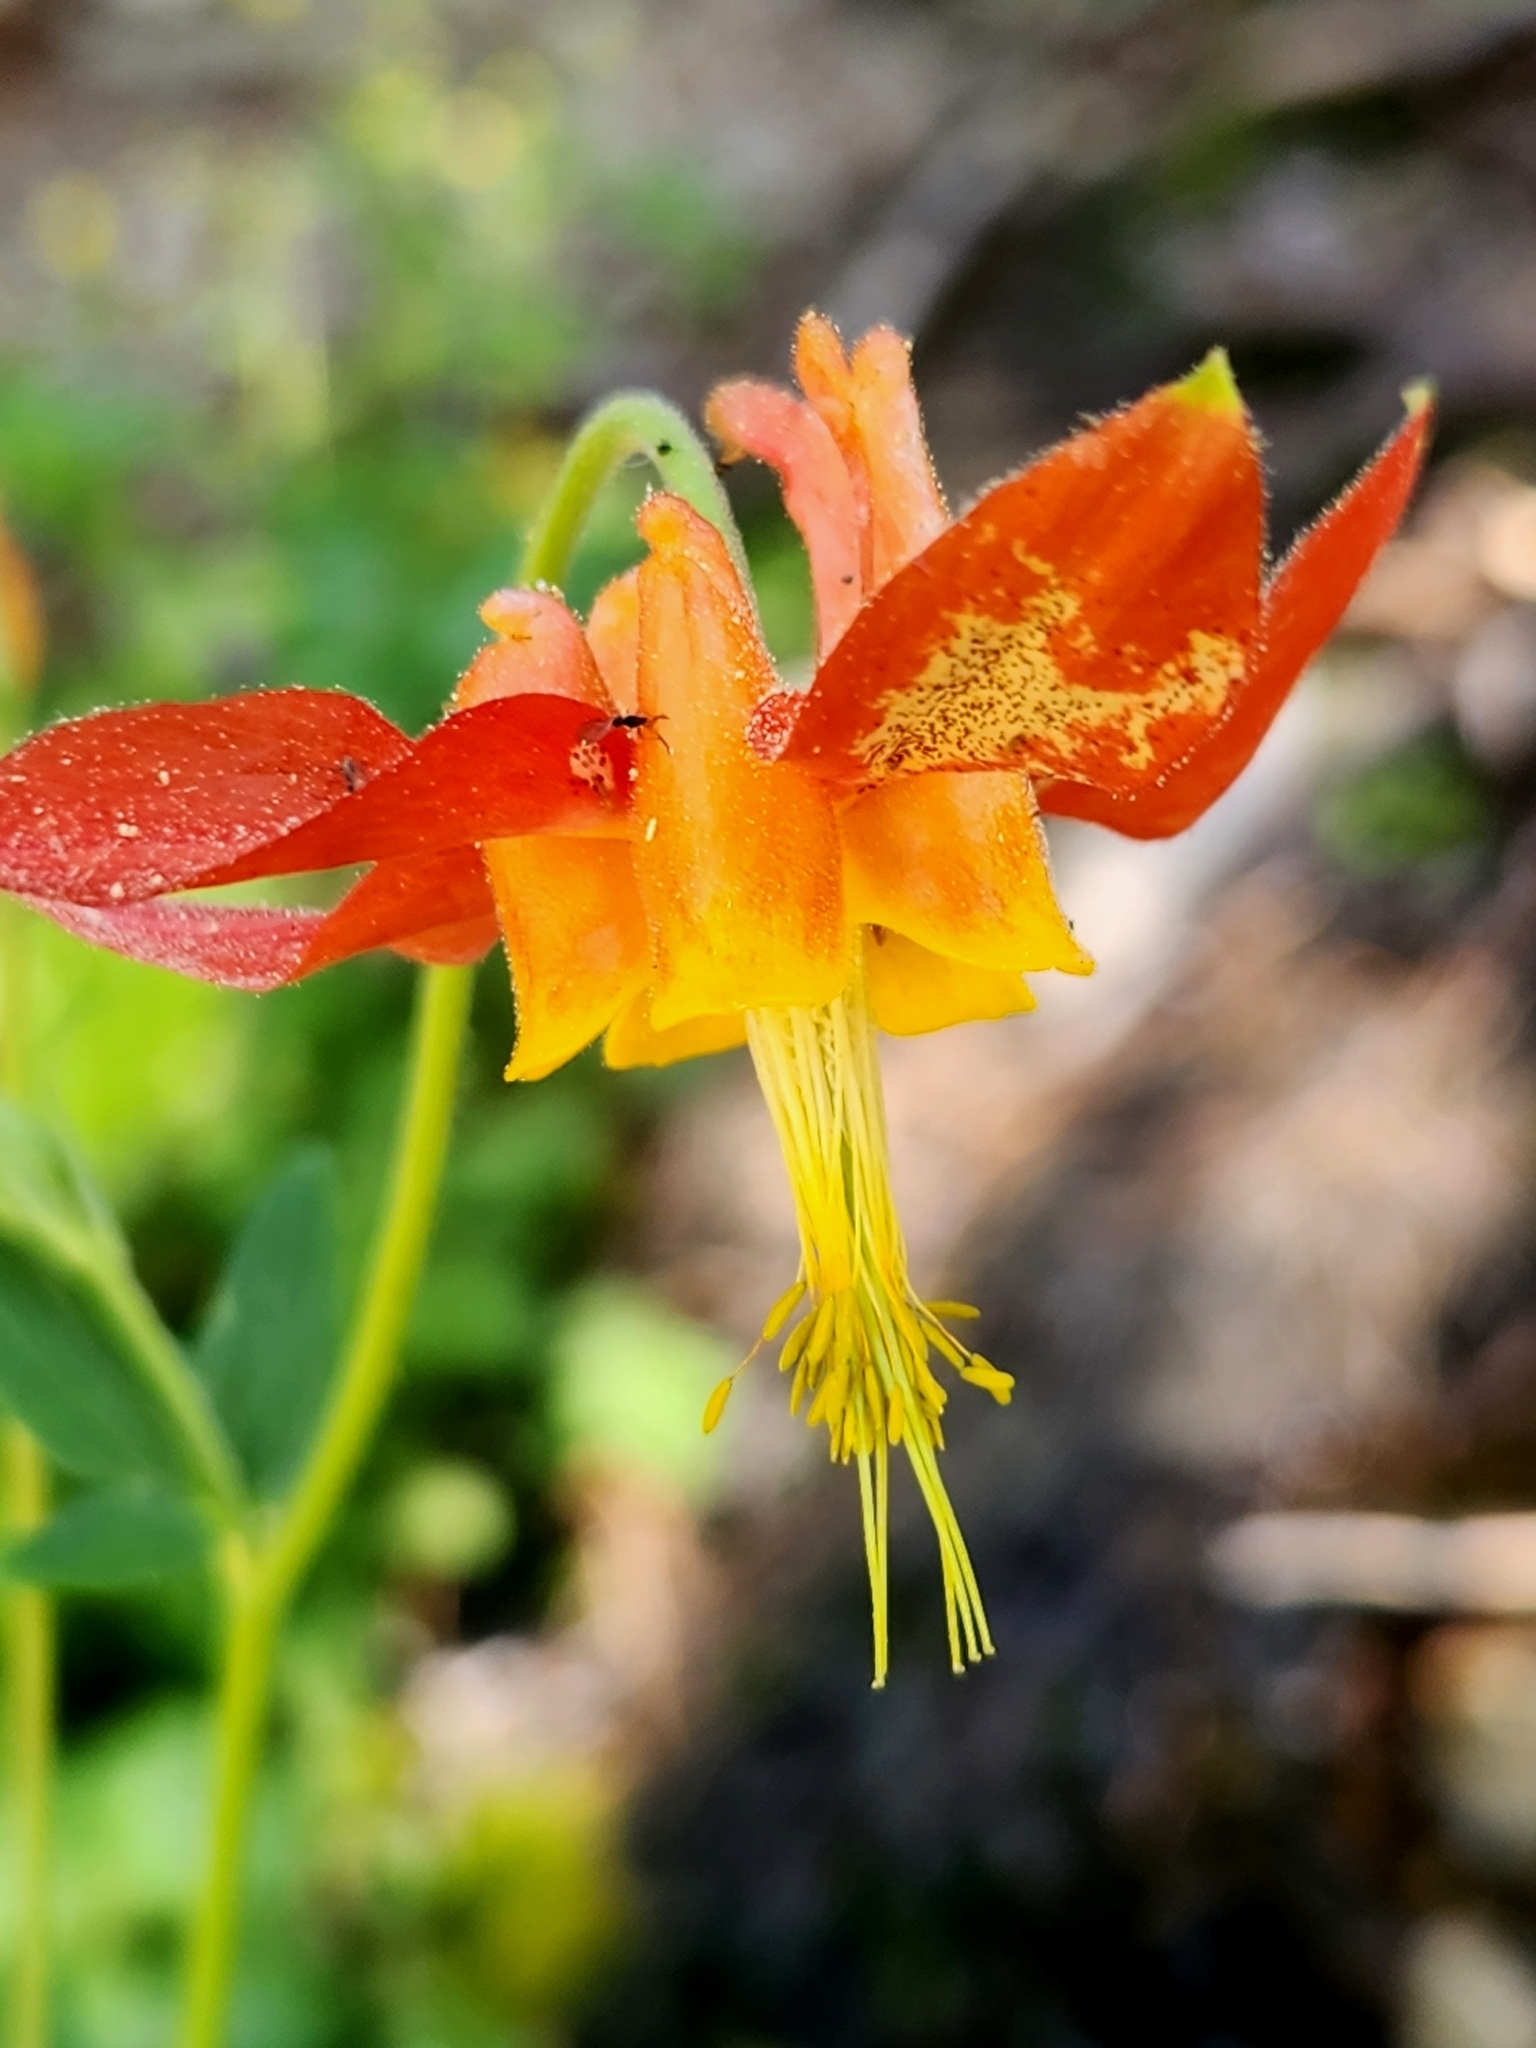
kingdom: Plantae
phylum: Tracheophyta
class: Magnoliopsida
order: Ranunculales
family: Ranunculaceae
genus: Aquilegia
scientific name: Aquilegia formosa
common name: Sitka columbine
